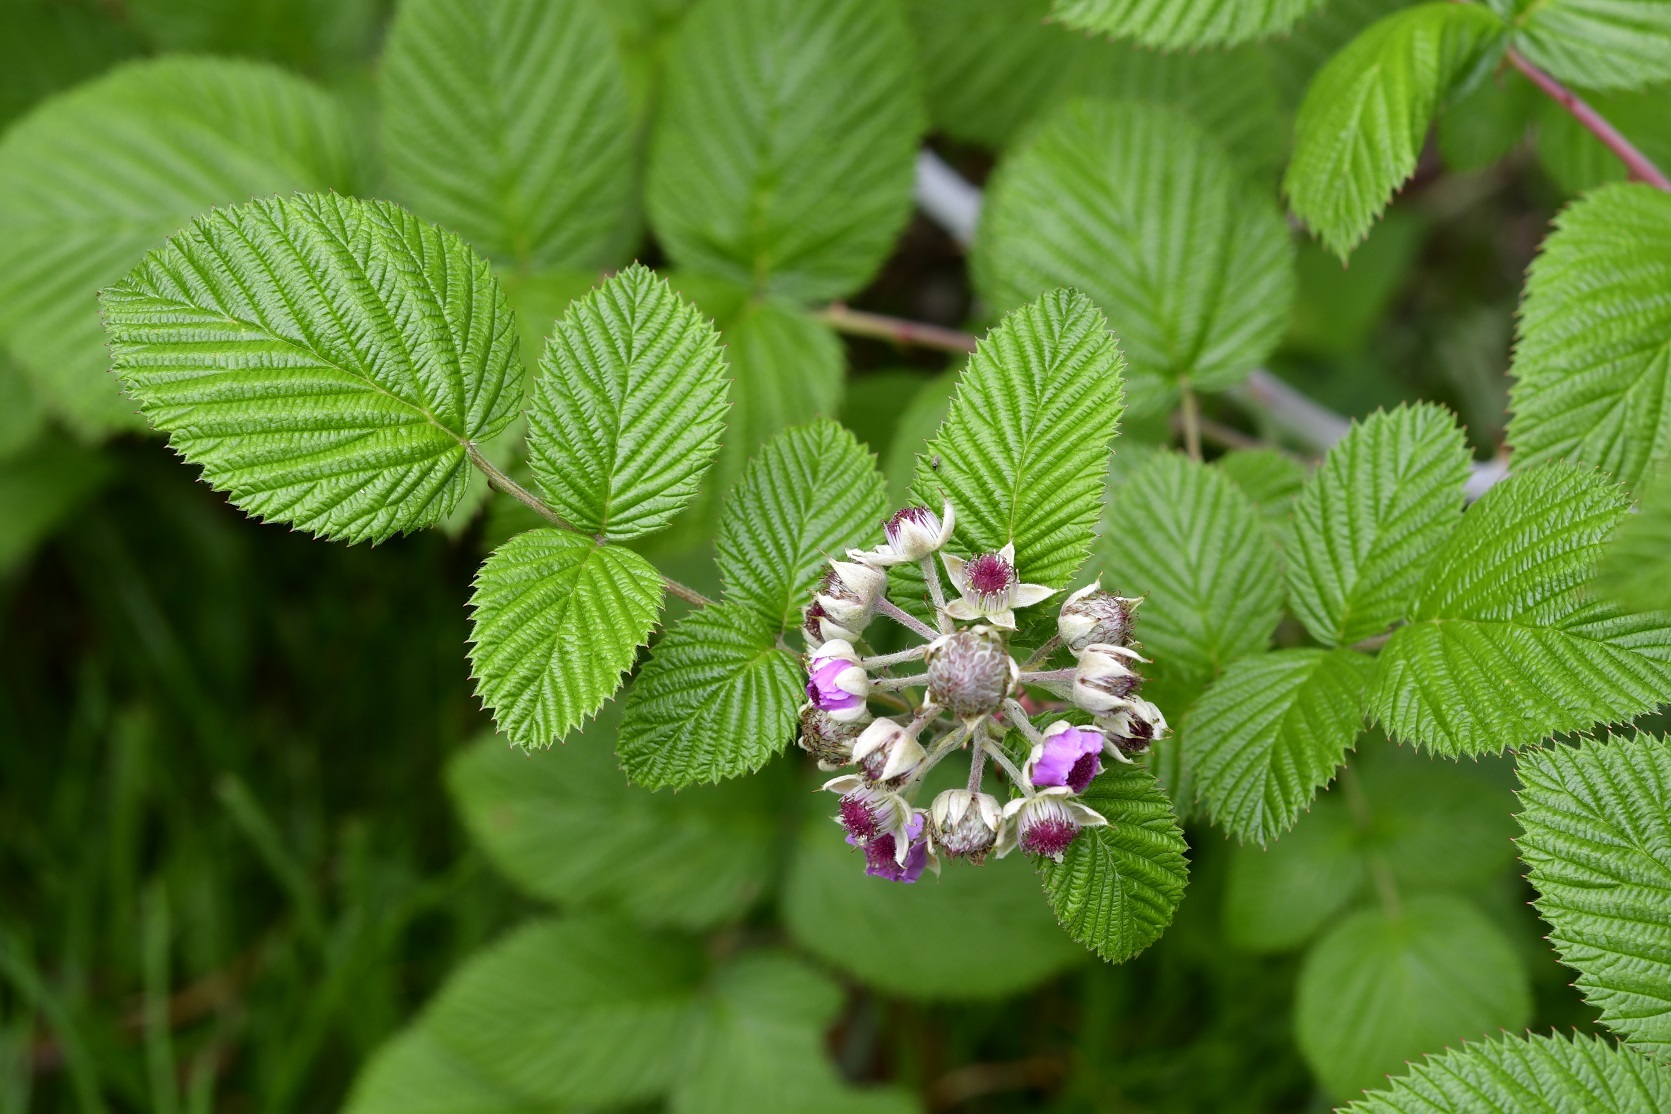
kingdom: Plantae
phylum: Tracheophyta
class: Magnoliopsida
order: Rosales
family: Rosaceae
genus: Rubus
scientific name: Rubus niveus
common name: Snowpeaks raspberry
